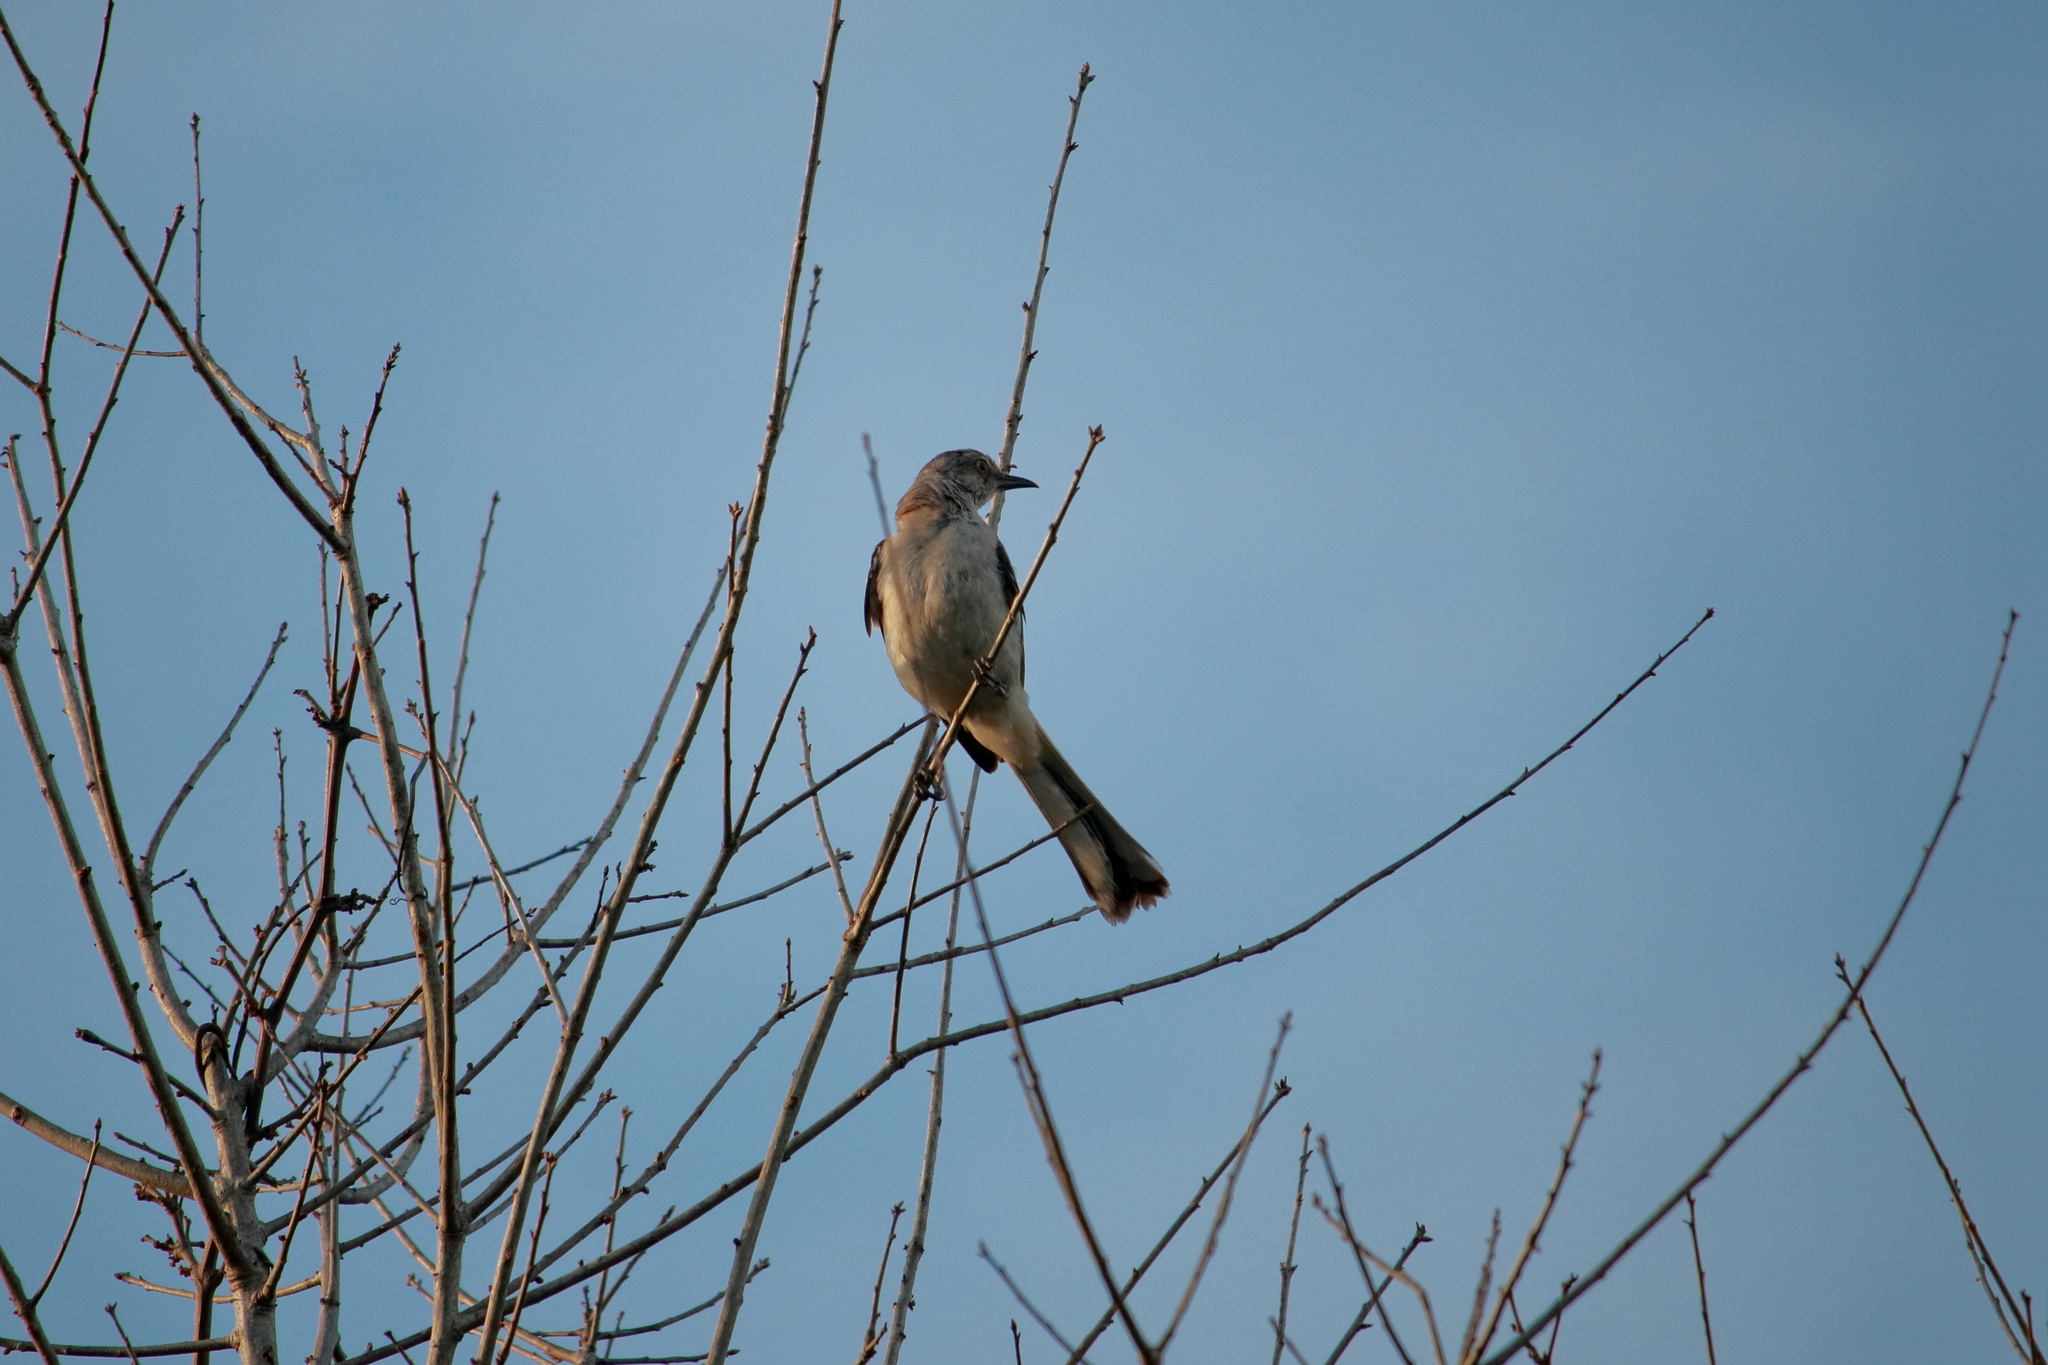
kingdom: Animalia
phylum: Chordata
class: Aves
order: Passeriformes
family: Mimidae
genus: Mimus
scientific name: Mimus polyglottos
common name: Northern mockingbird
